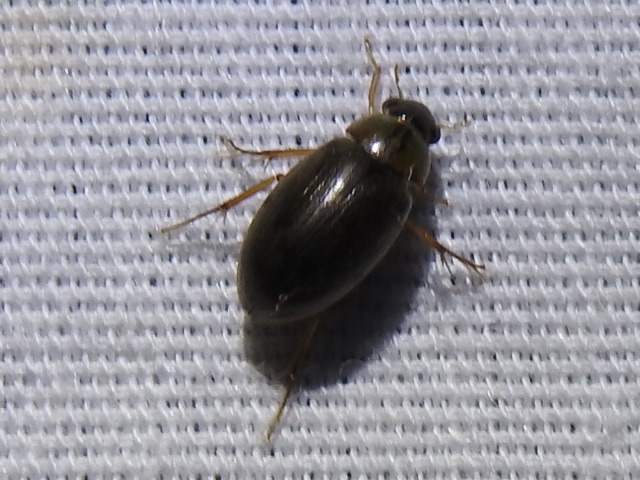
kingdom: Animalia
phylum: Arthropoda
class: Insecta
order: Coleoptera
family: Hydrophilidae
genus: Berosus
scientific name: Berosus
